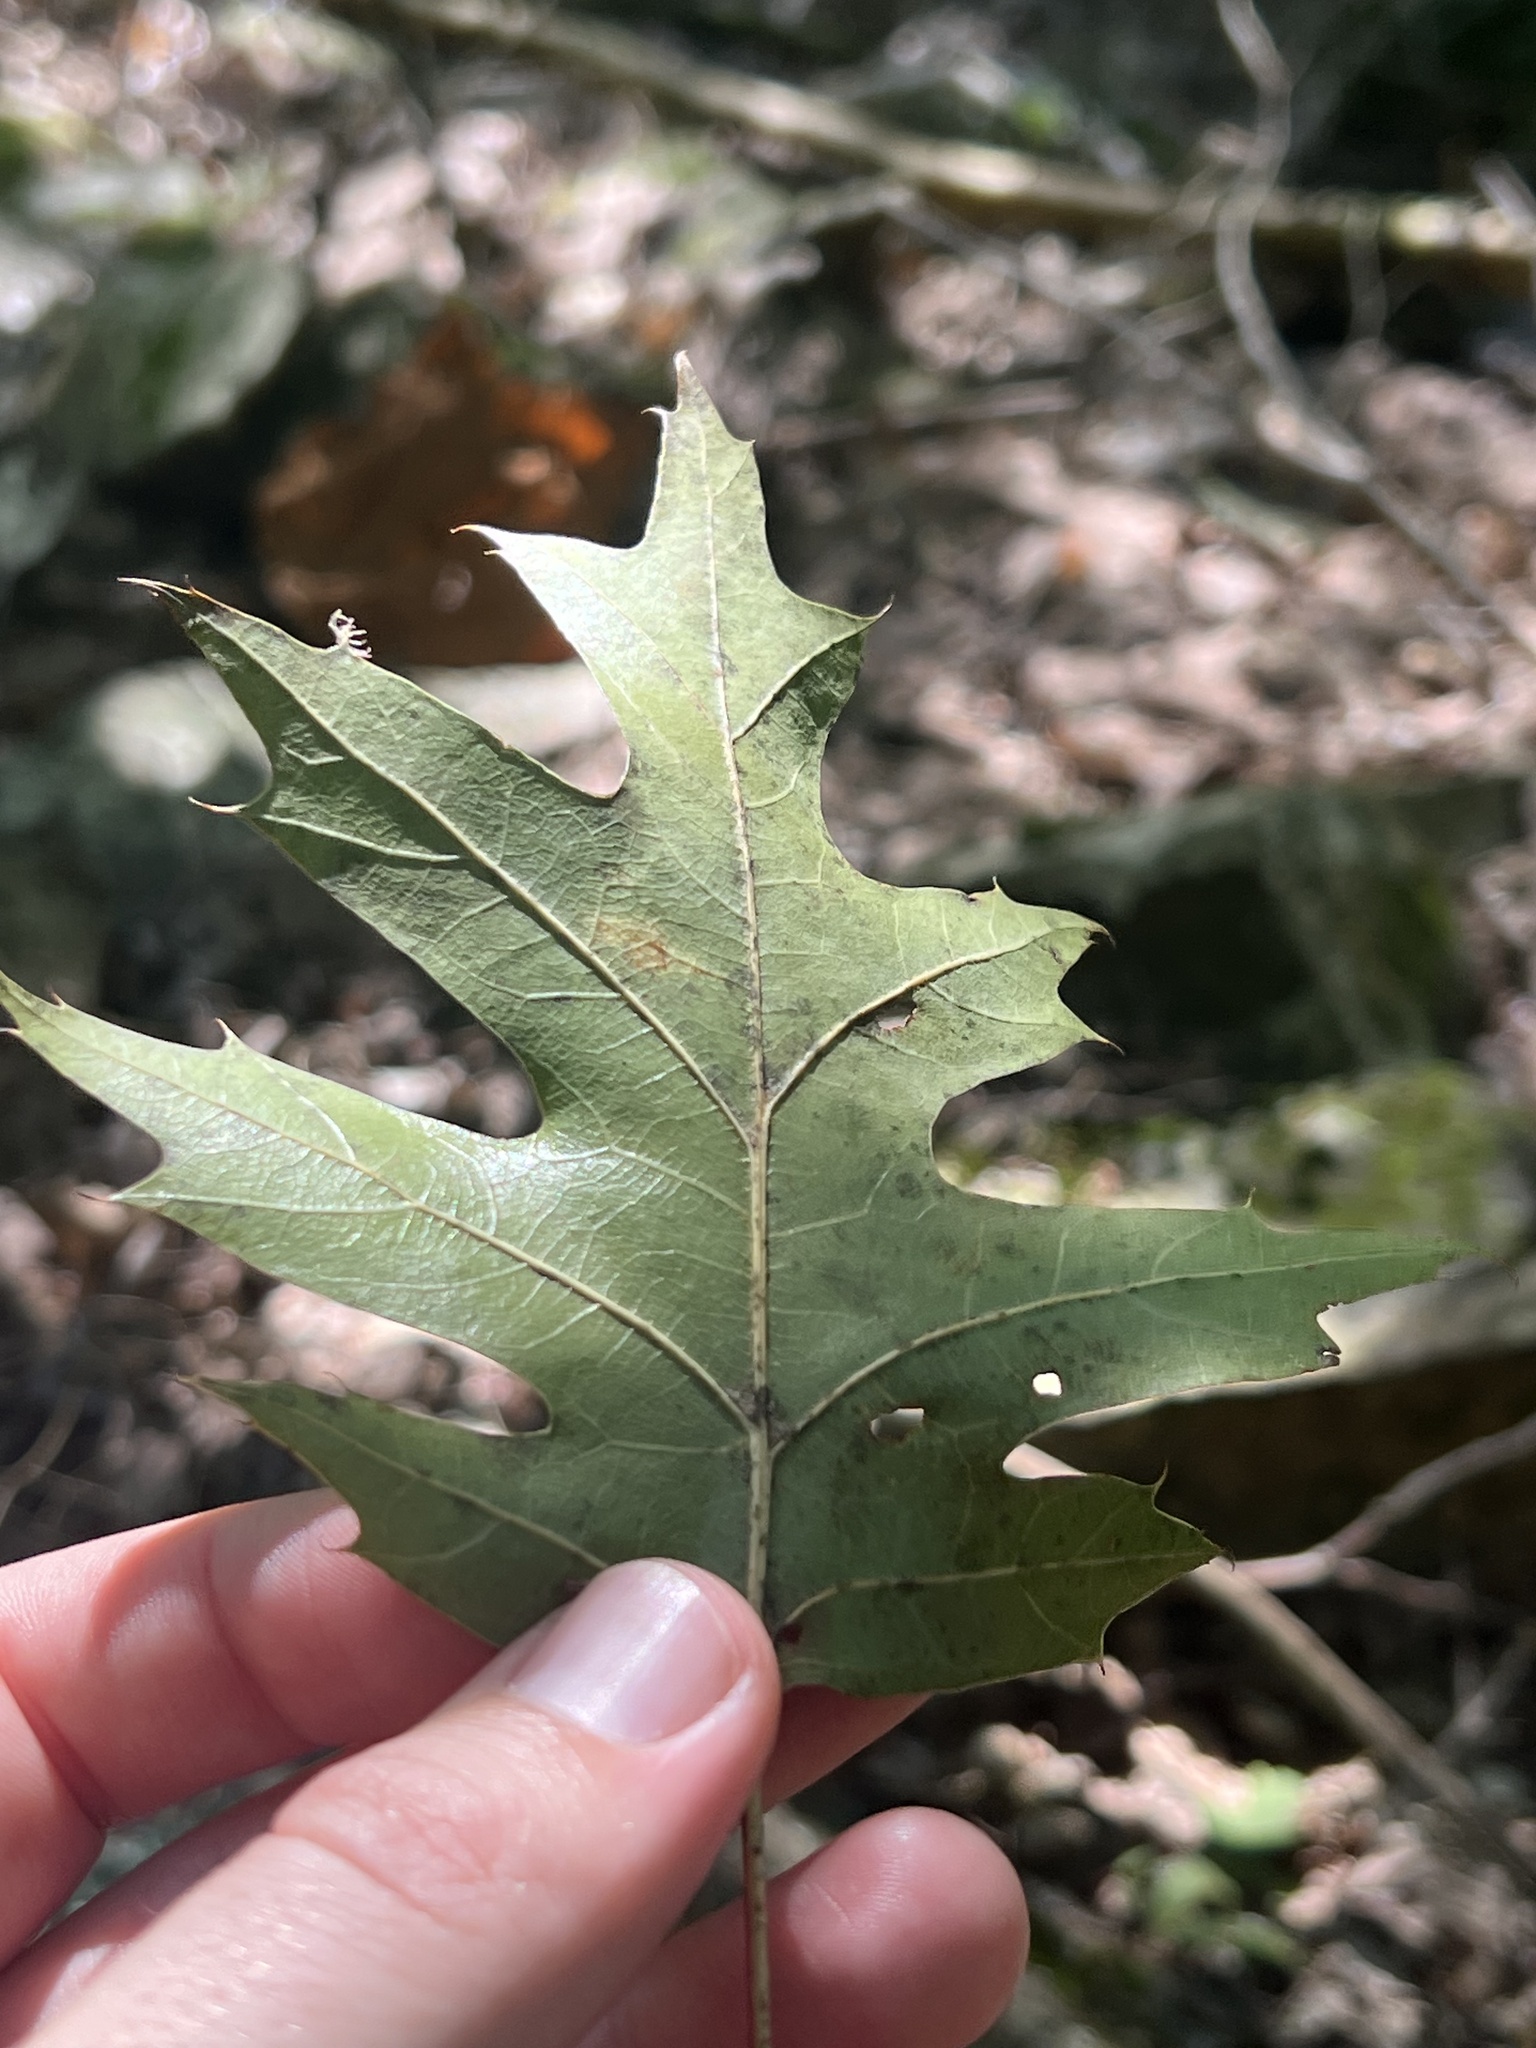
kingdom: Plantae
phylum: Tracheophyta
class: Magnoliopsida
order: Fagales
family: Fagaceae
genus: Quercus
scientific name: Quercus rubra
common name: Red oak
